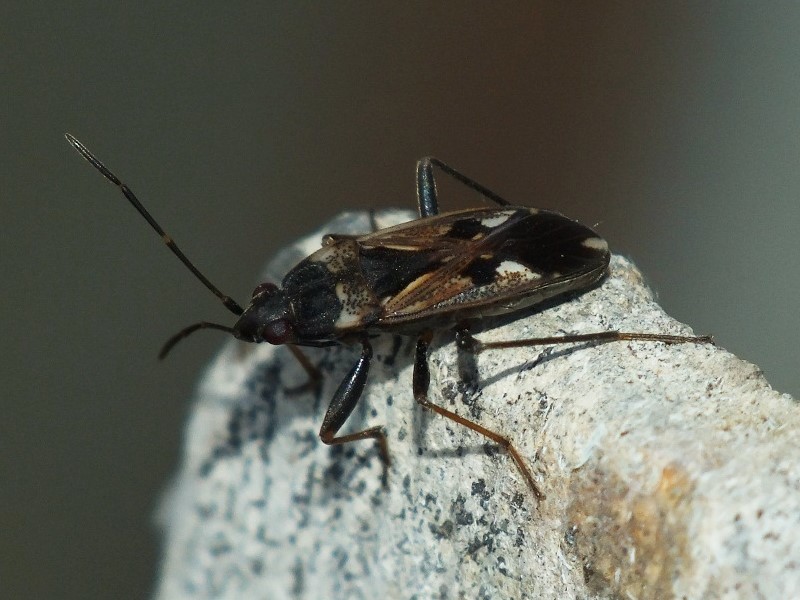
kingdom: Animalia
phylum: Arthropoda
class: Insecta
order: Hemiptera
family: Rhyparochromidae
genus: Rhyparochromus
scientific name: Rhyparochromus vulgaris
